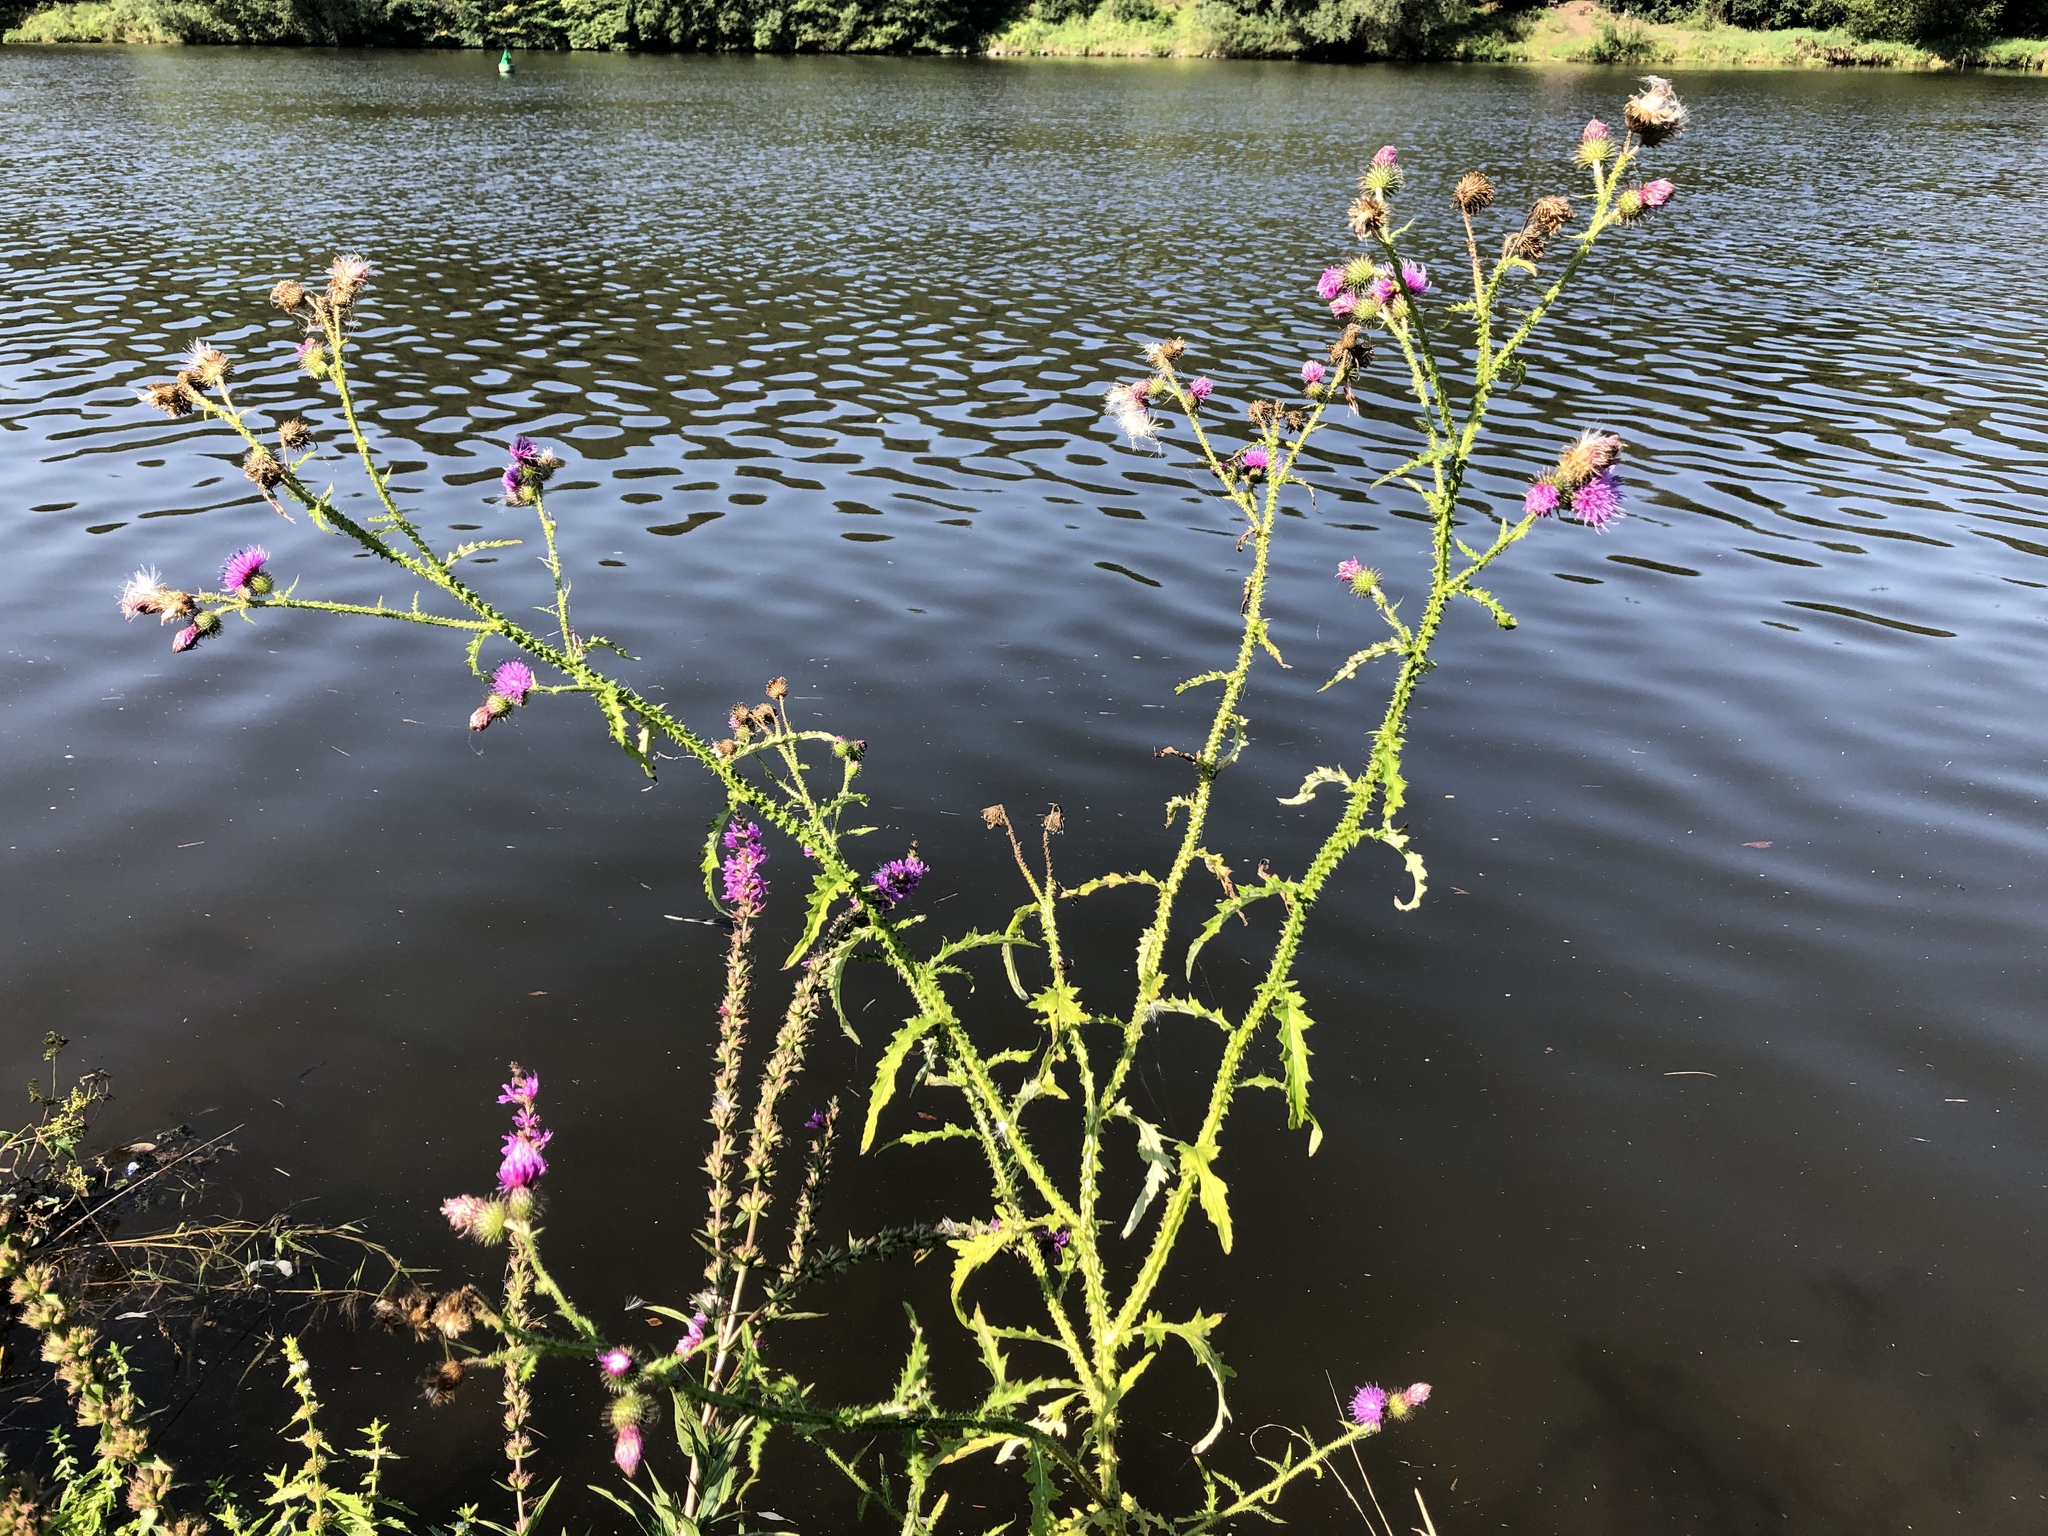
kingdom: Plantae
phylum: Tracheophyta
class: Magnoliopsida
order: Asterales
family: Asteraceae
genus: Carduus
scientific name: Carduus crispus
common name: Welted thistle
